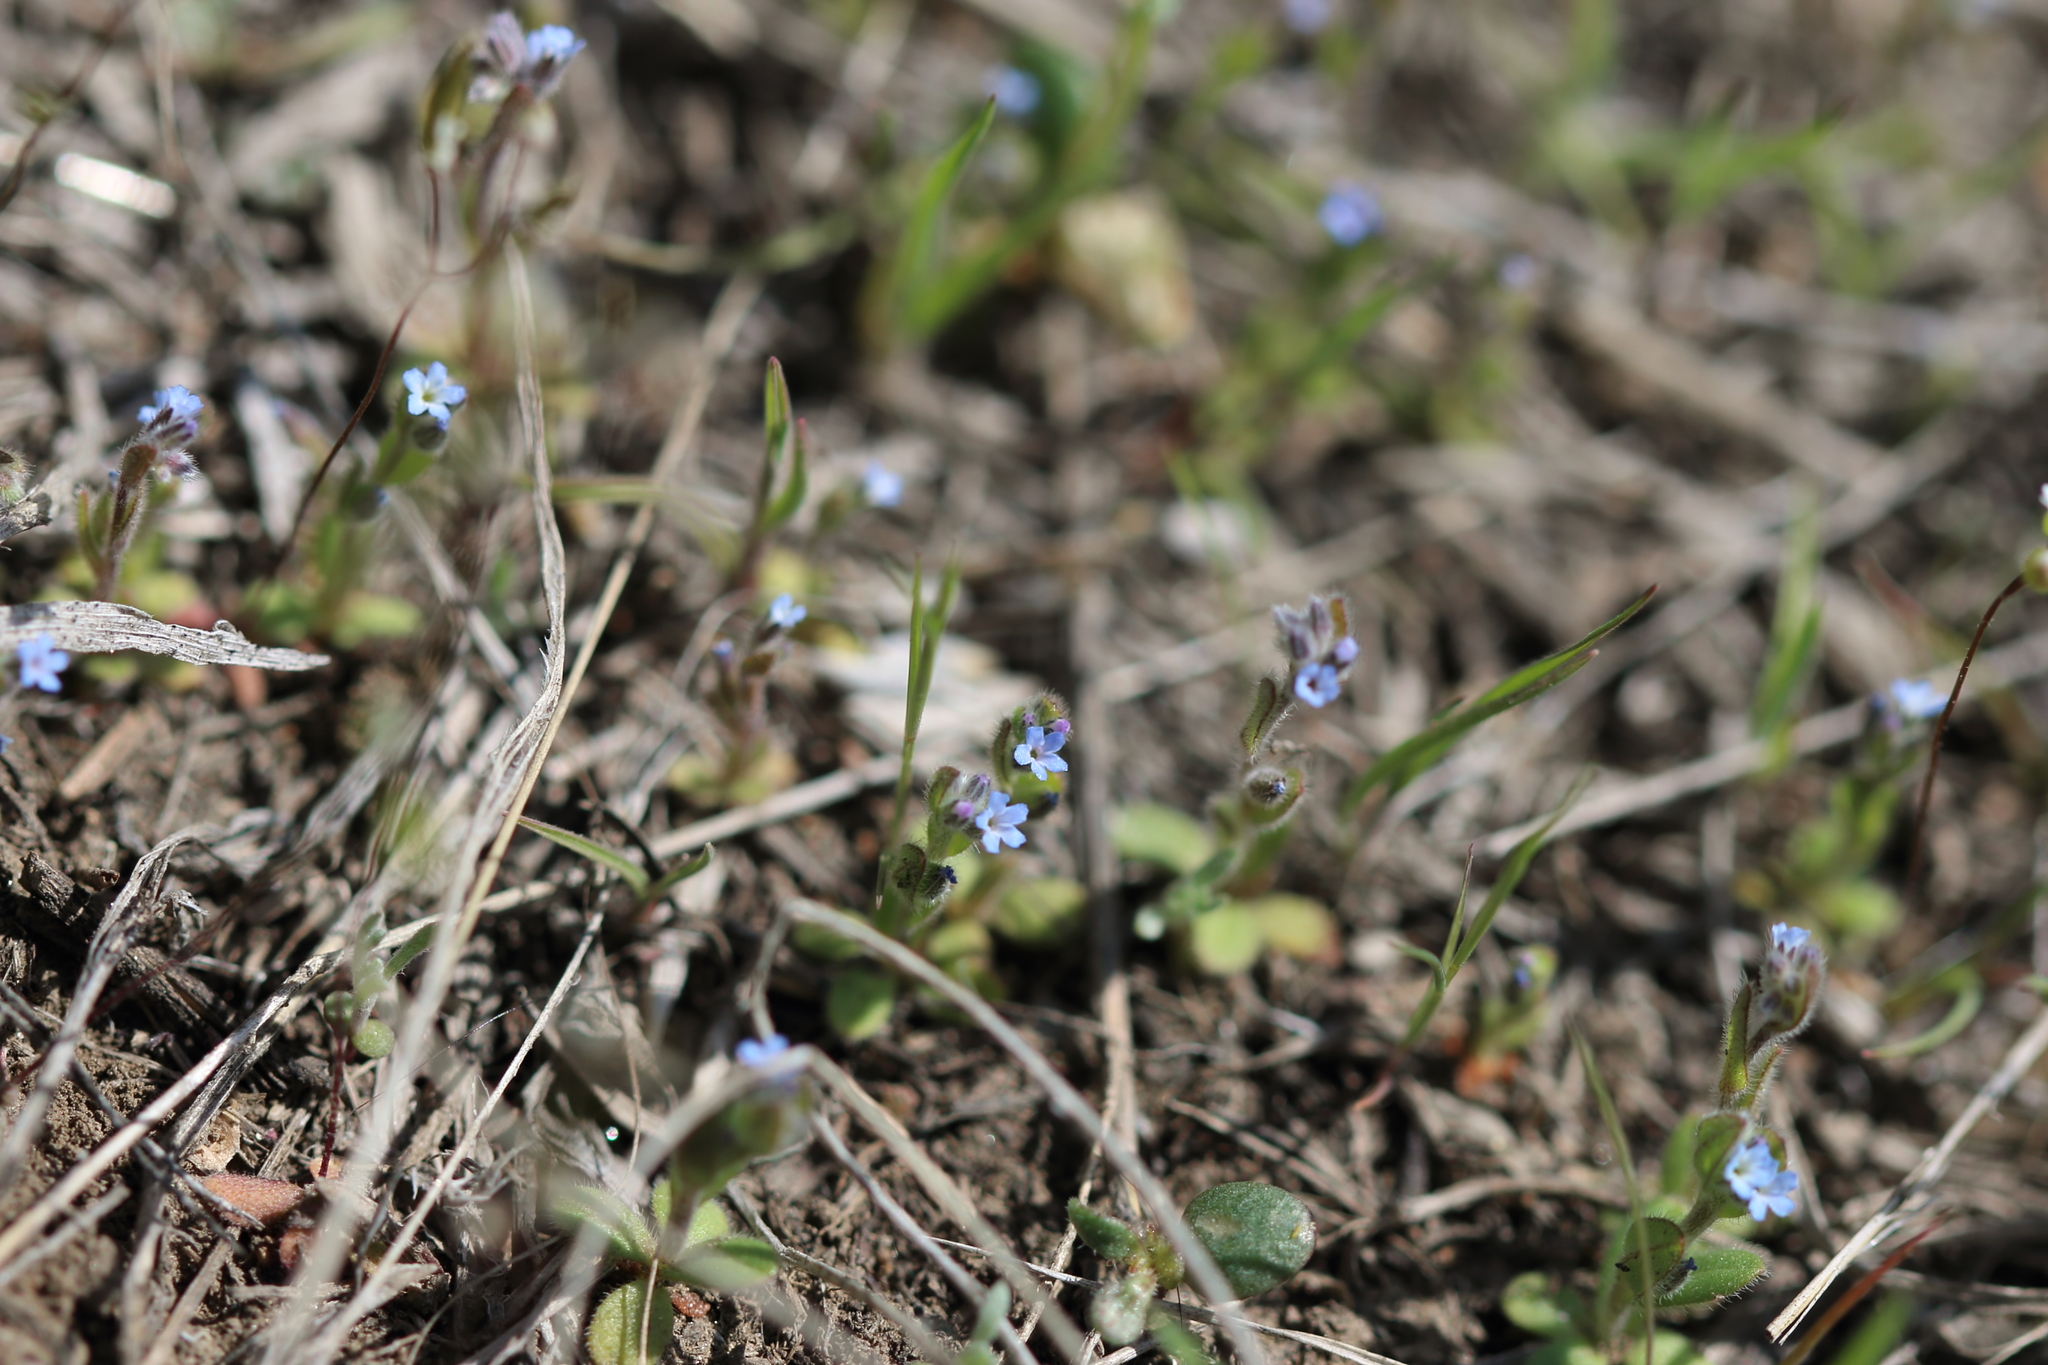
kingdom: Plantae
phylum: Tracheophyta
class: Magnoliopsida
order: Boraginales
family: Boraginaceae
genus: Myosotis
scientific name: Myosotis stricta
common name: Strict forget-me-not
